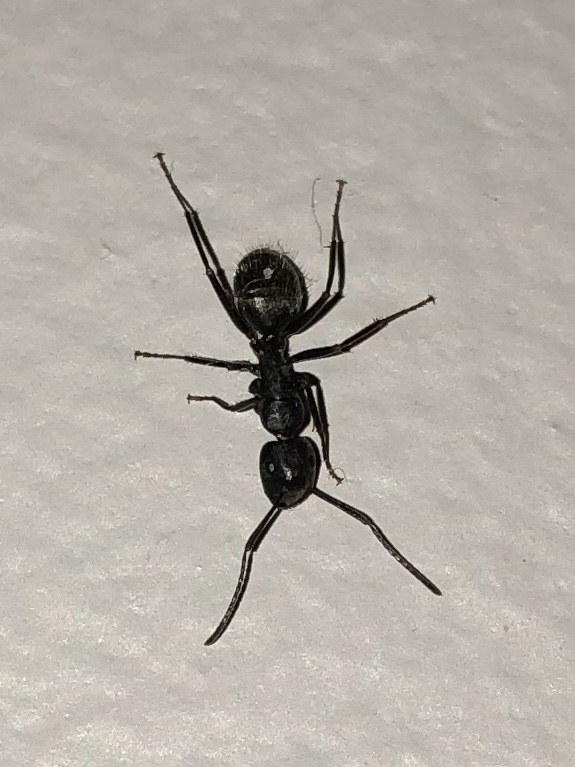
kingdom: Animalia
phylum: Arthropoda
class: Insecta
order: Hymenoptera
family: Formicidae
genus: Camponotus
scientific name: Camponotus pennsylvanicus
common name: Black carpenter ant
